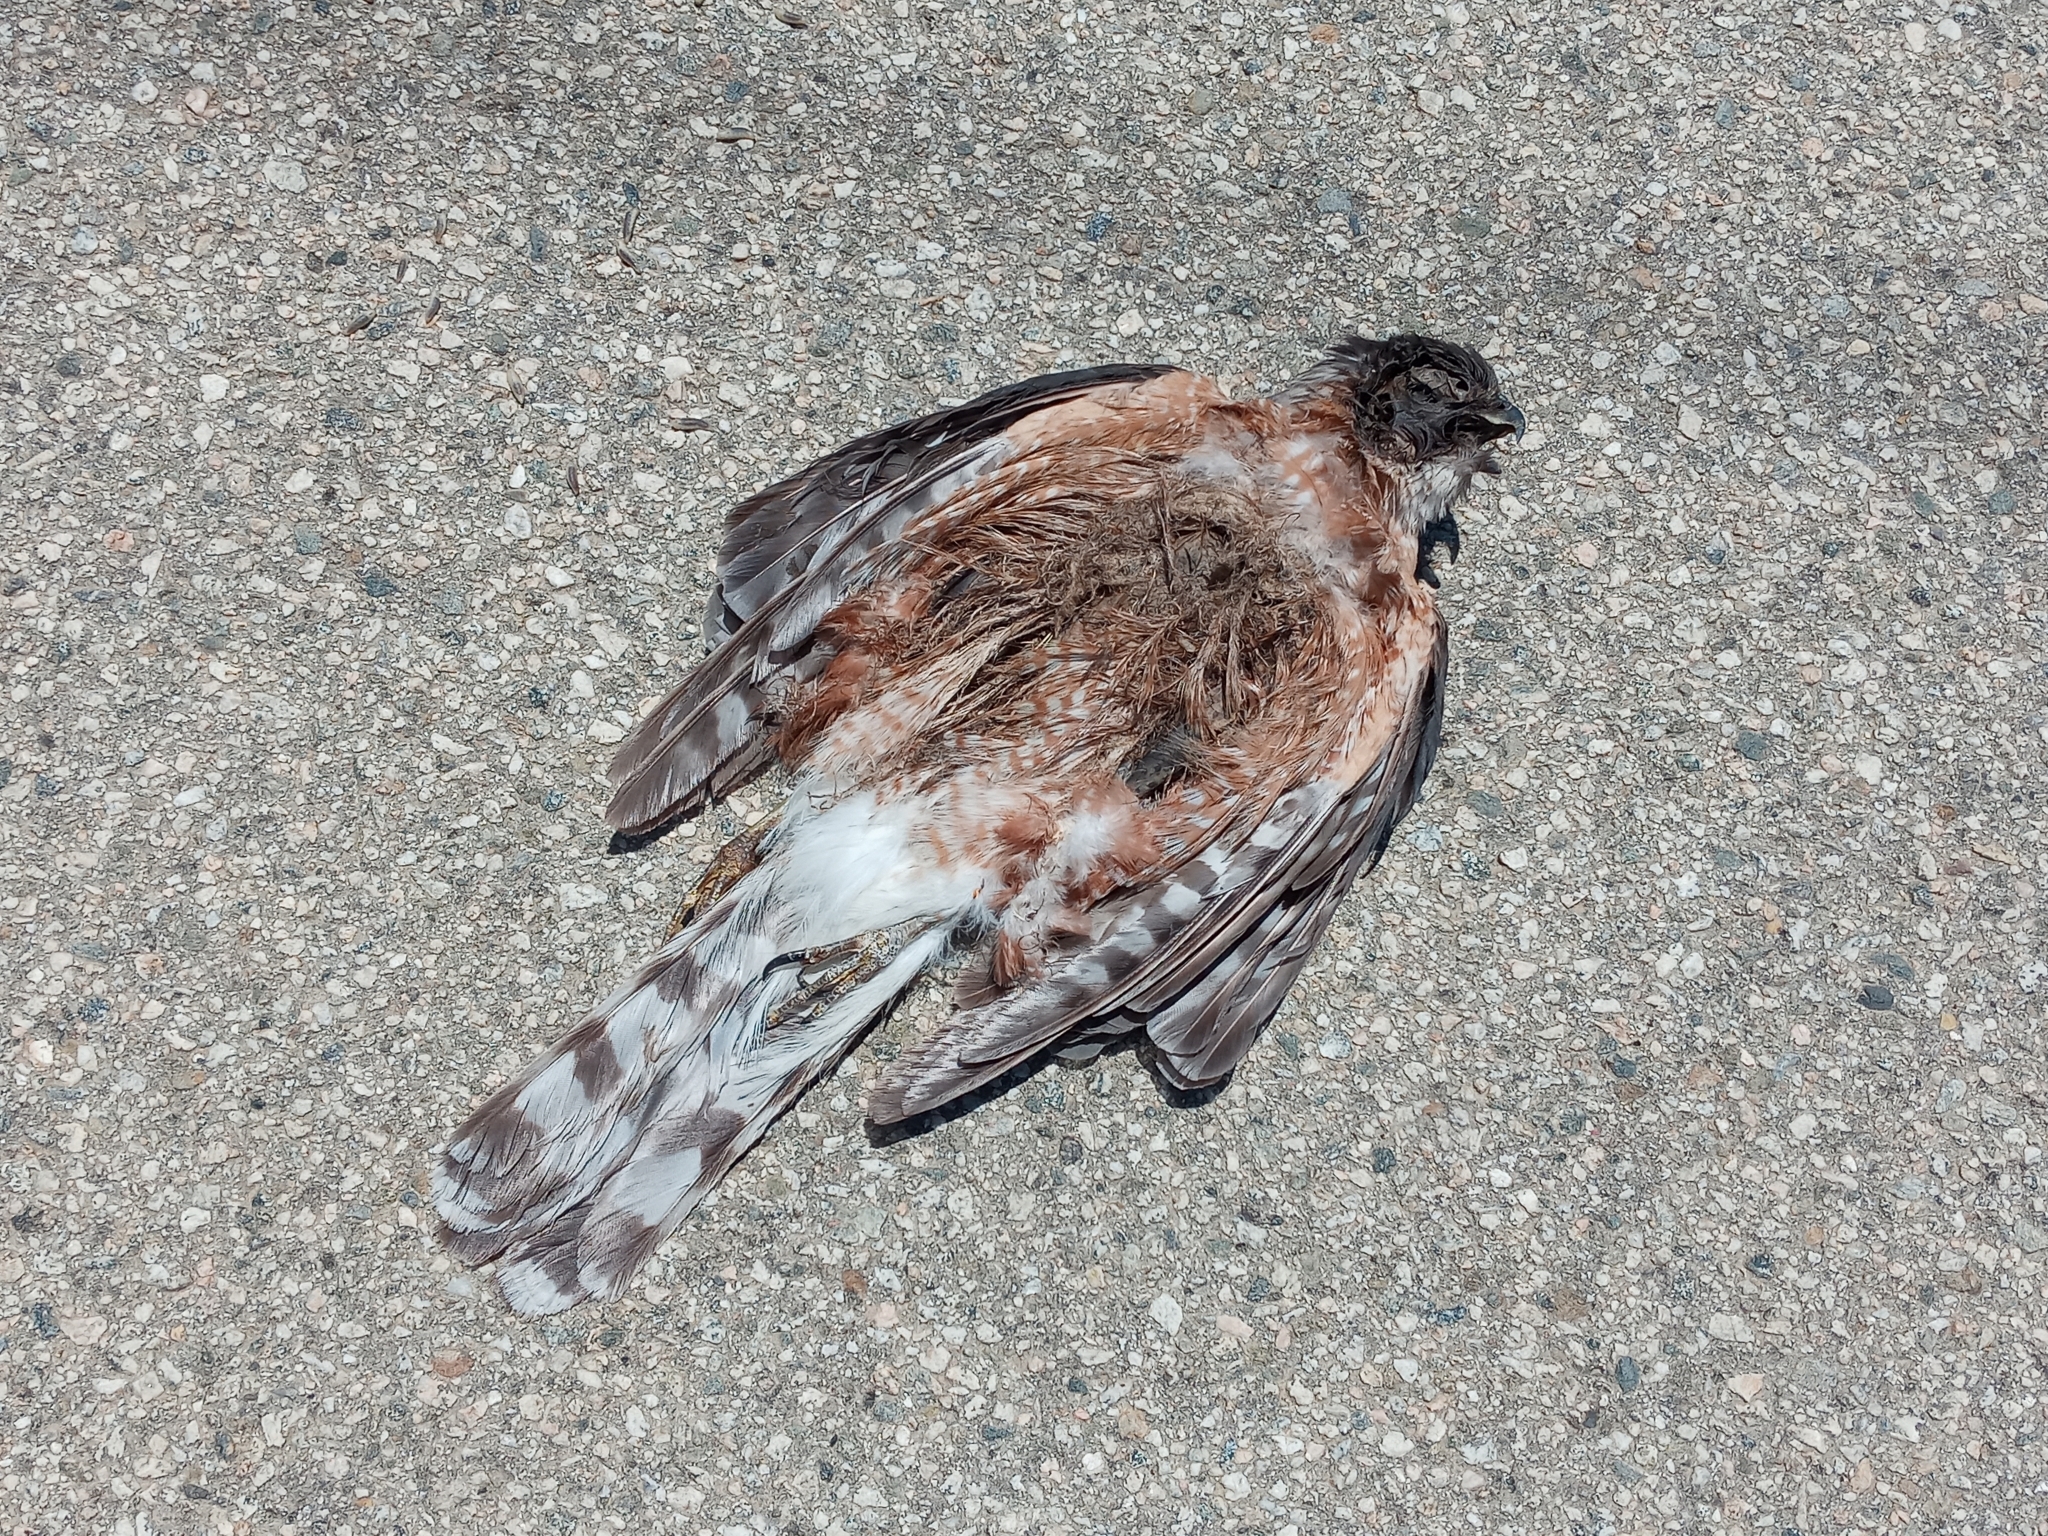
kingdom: Animalia
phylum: Chordata
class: Aves
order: Accipitriformes
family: Accipitridae
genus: Accipiter
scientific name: Accipiter cooperii
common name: Cooper's hawk
